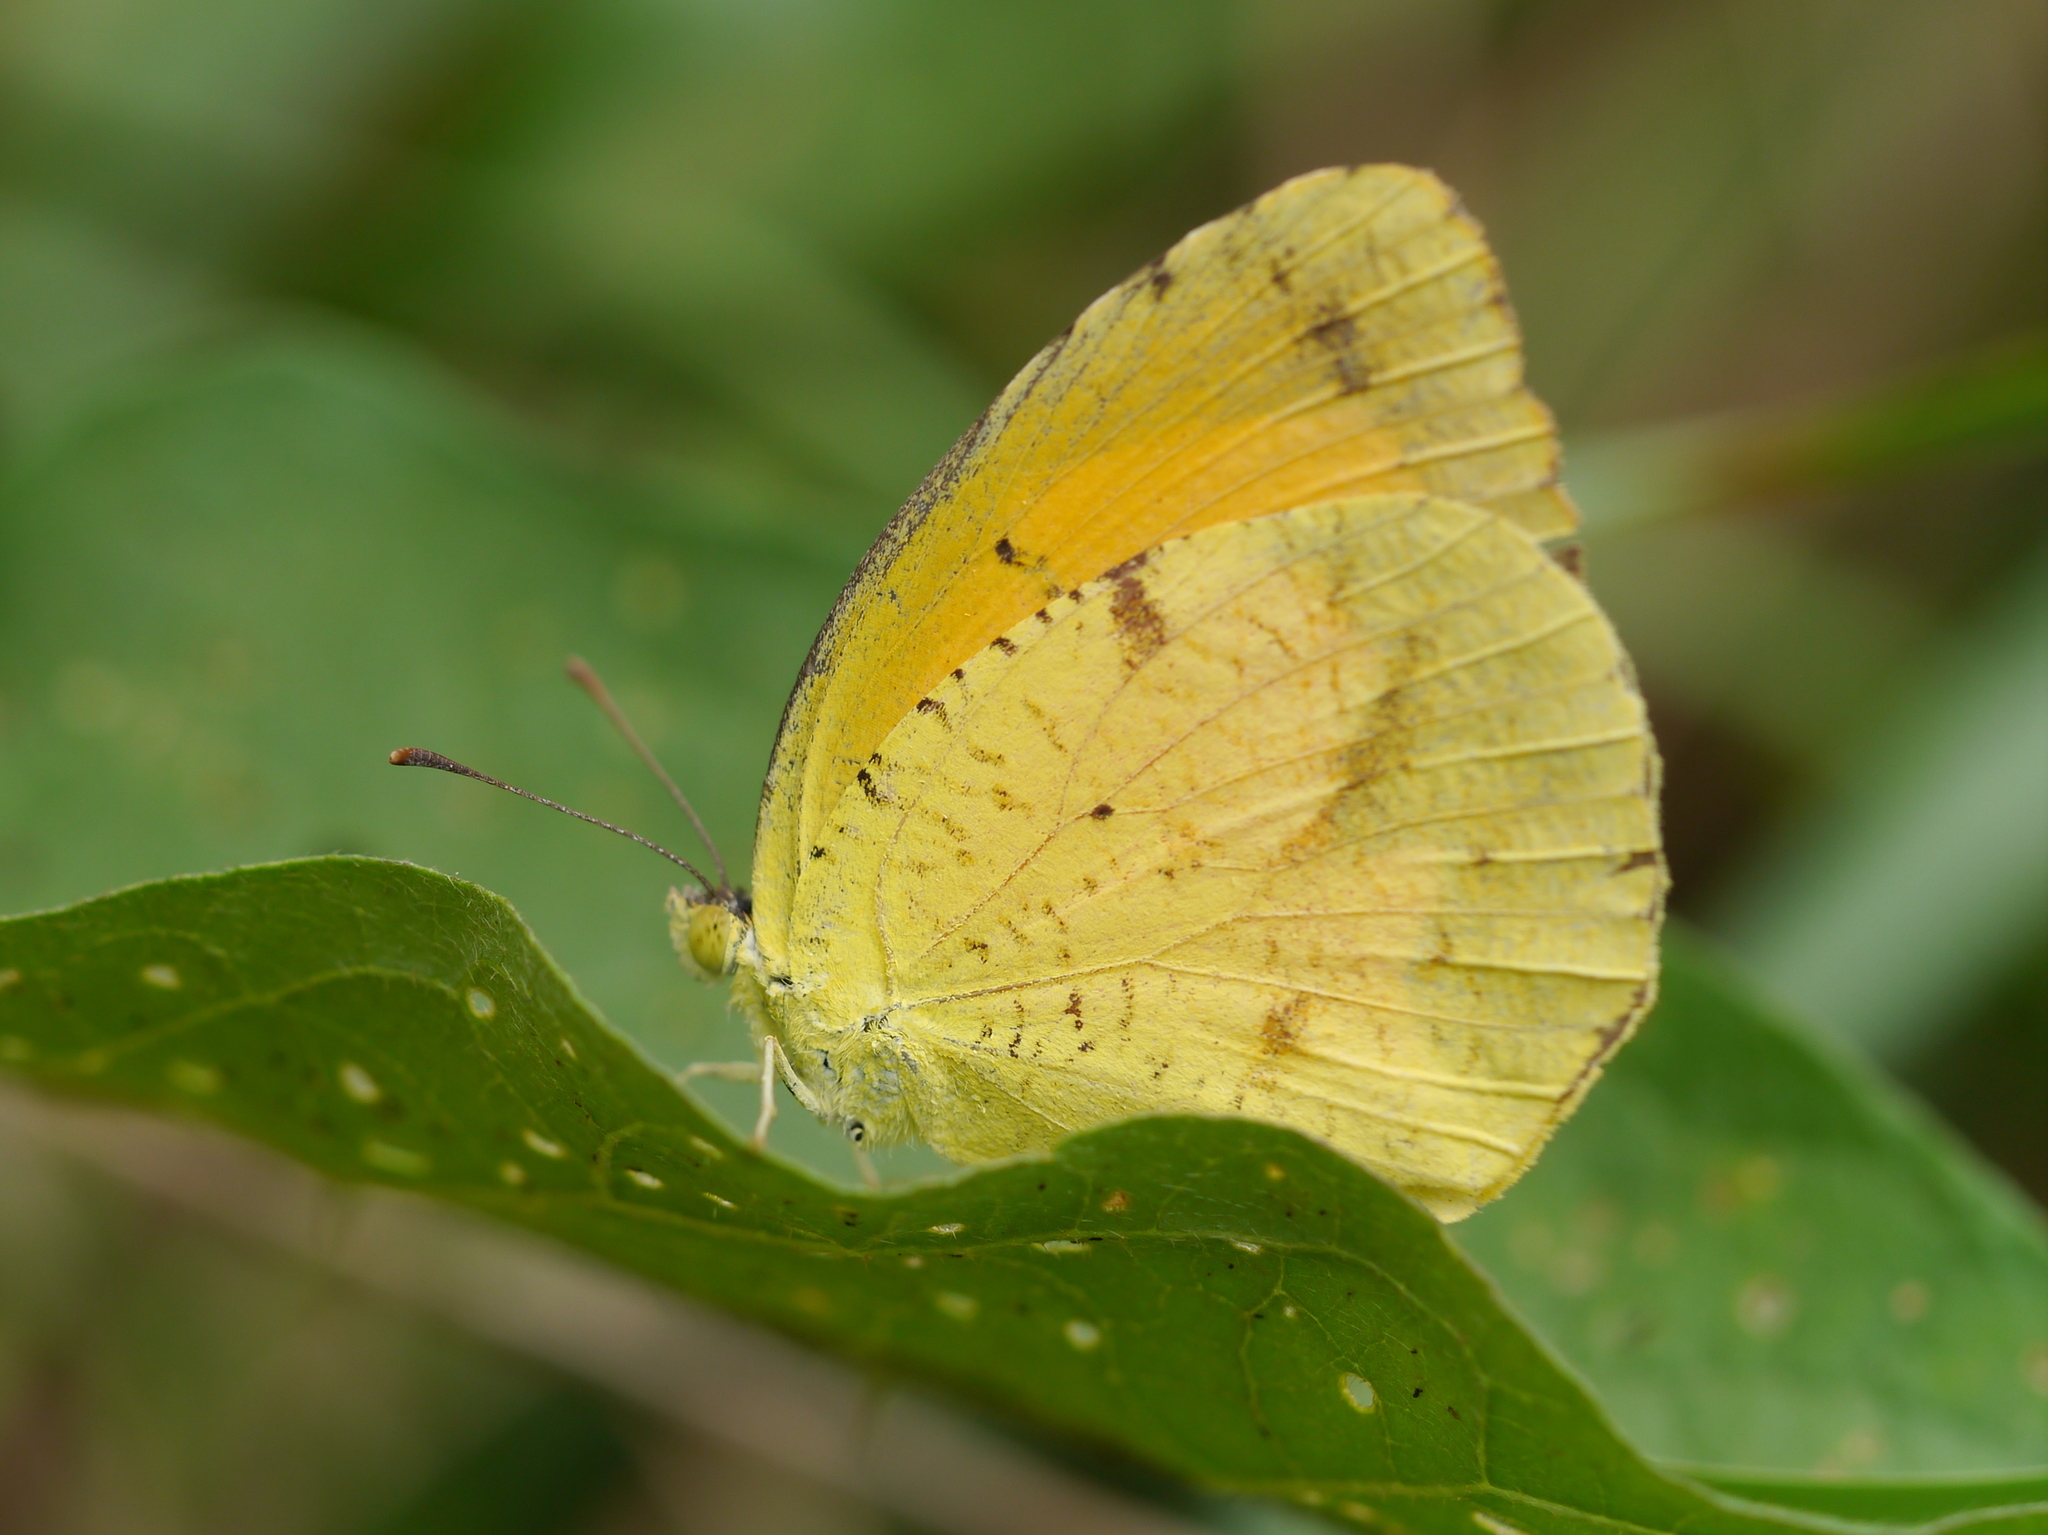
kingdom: Animalia
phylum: Arthropoda
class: Insecta
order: Lepidoptera
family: Pieridae
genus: Abaeis
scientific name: Abaeis nicippe
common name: Sleepy orange
